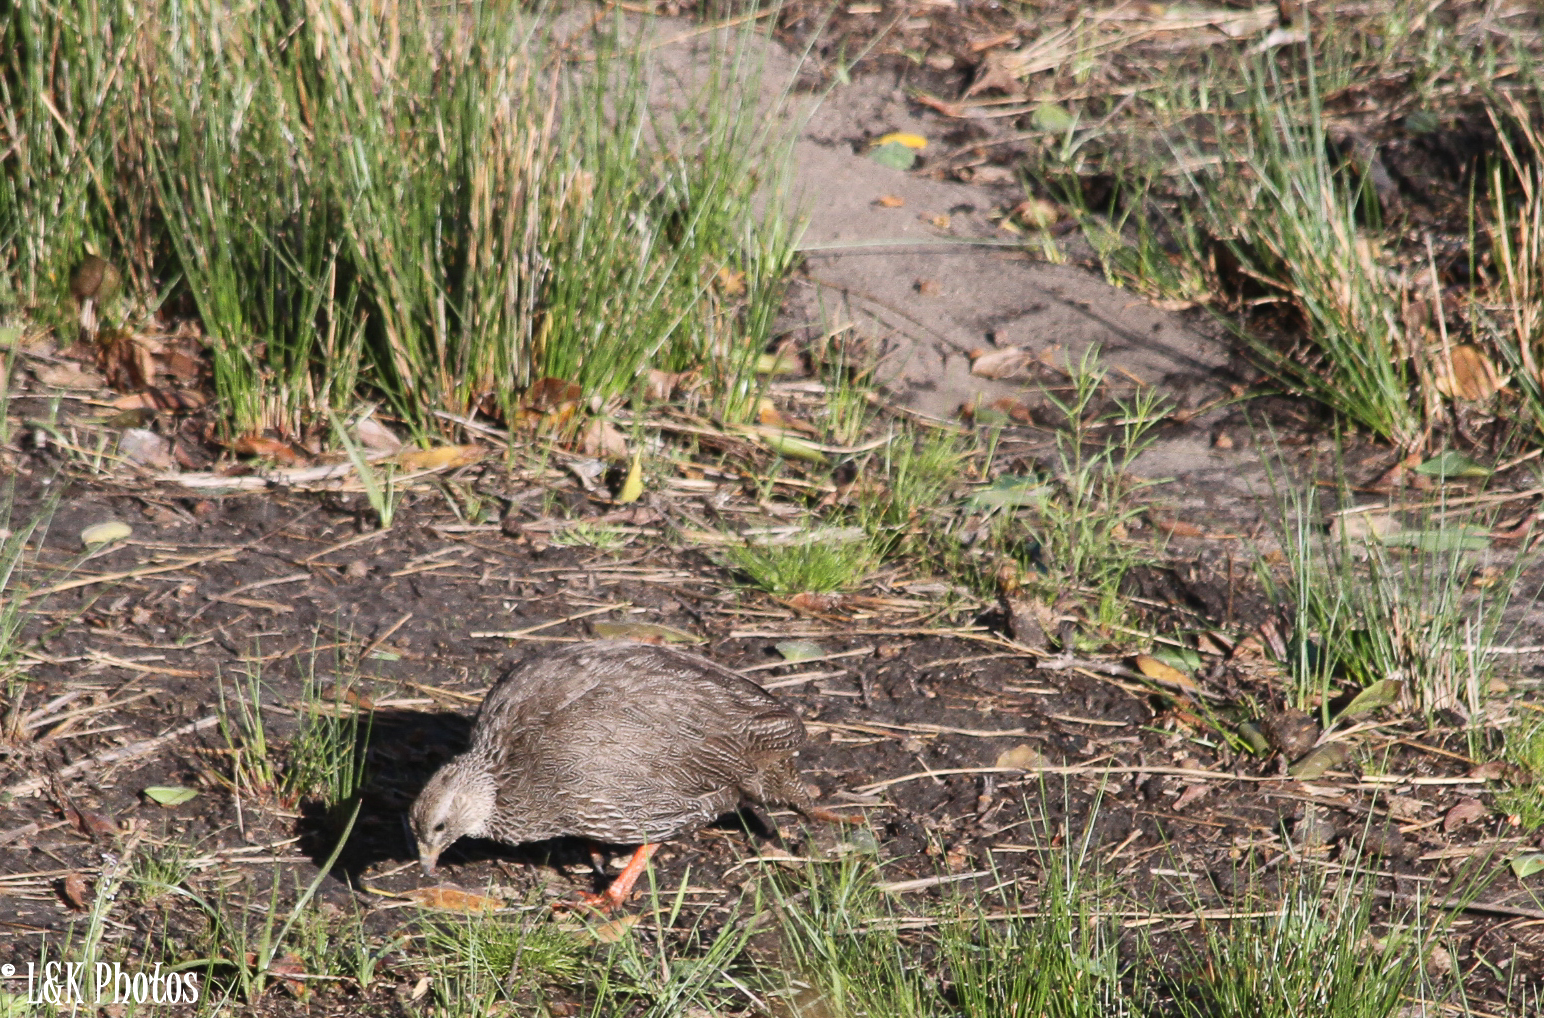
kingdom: Animalia
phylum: Chordata
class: Aves
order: Galliformes
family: Phasianidae
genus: Pternistis
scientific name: Pternistis capensis
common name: Cape spurfowl
